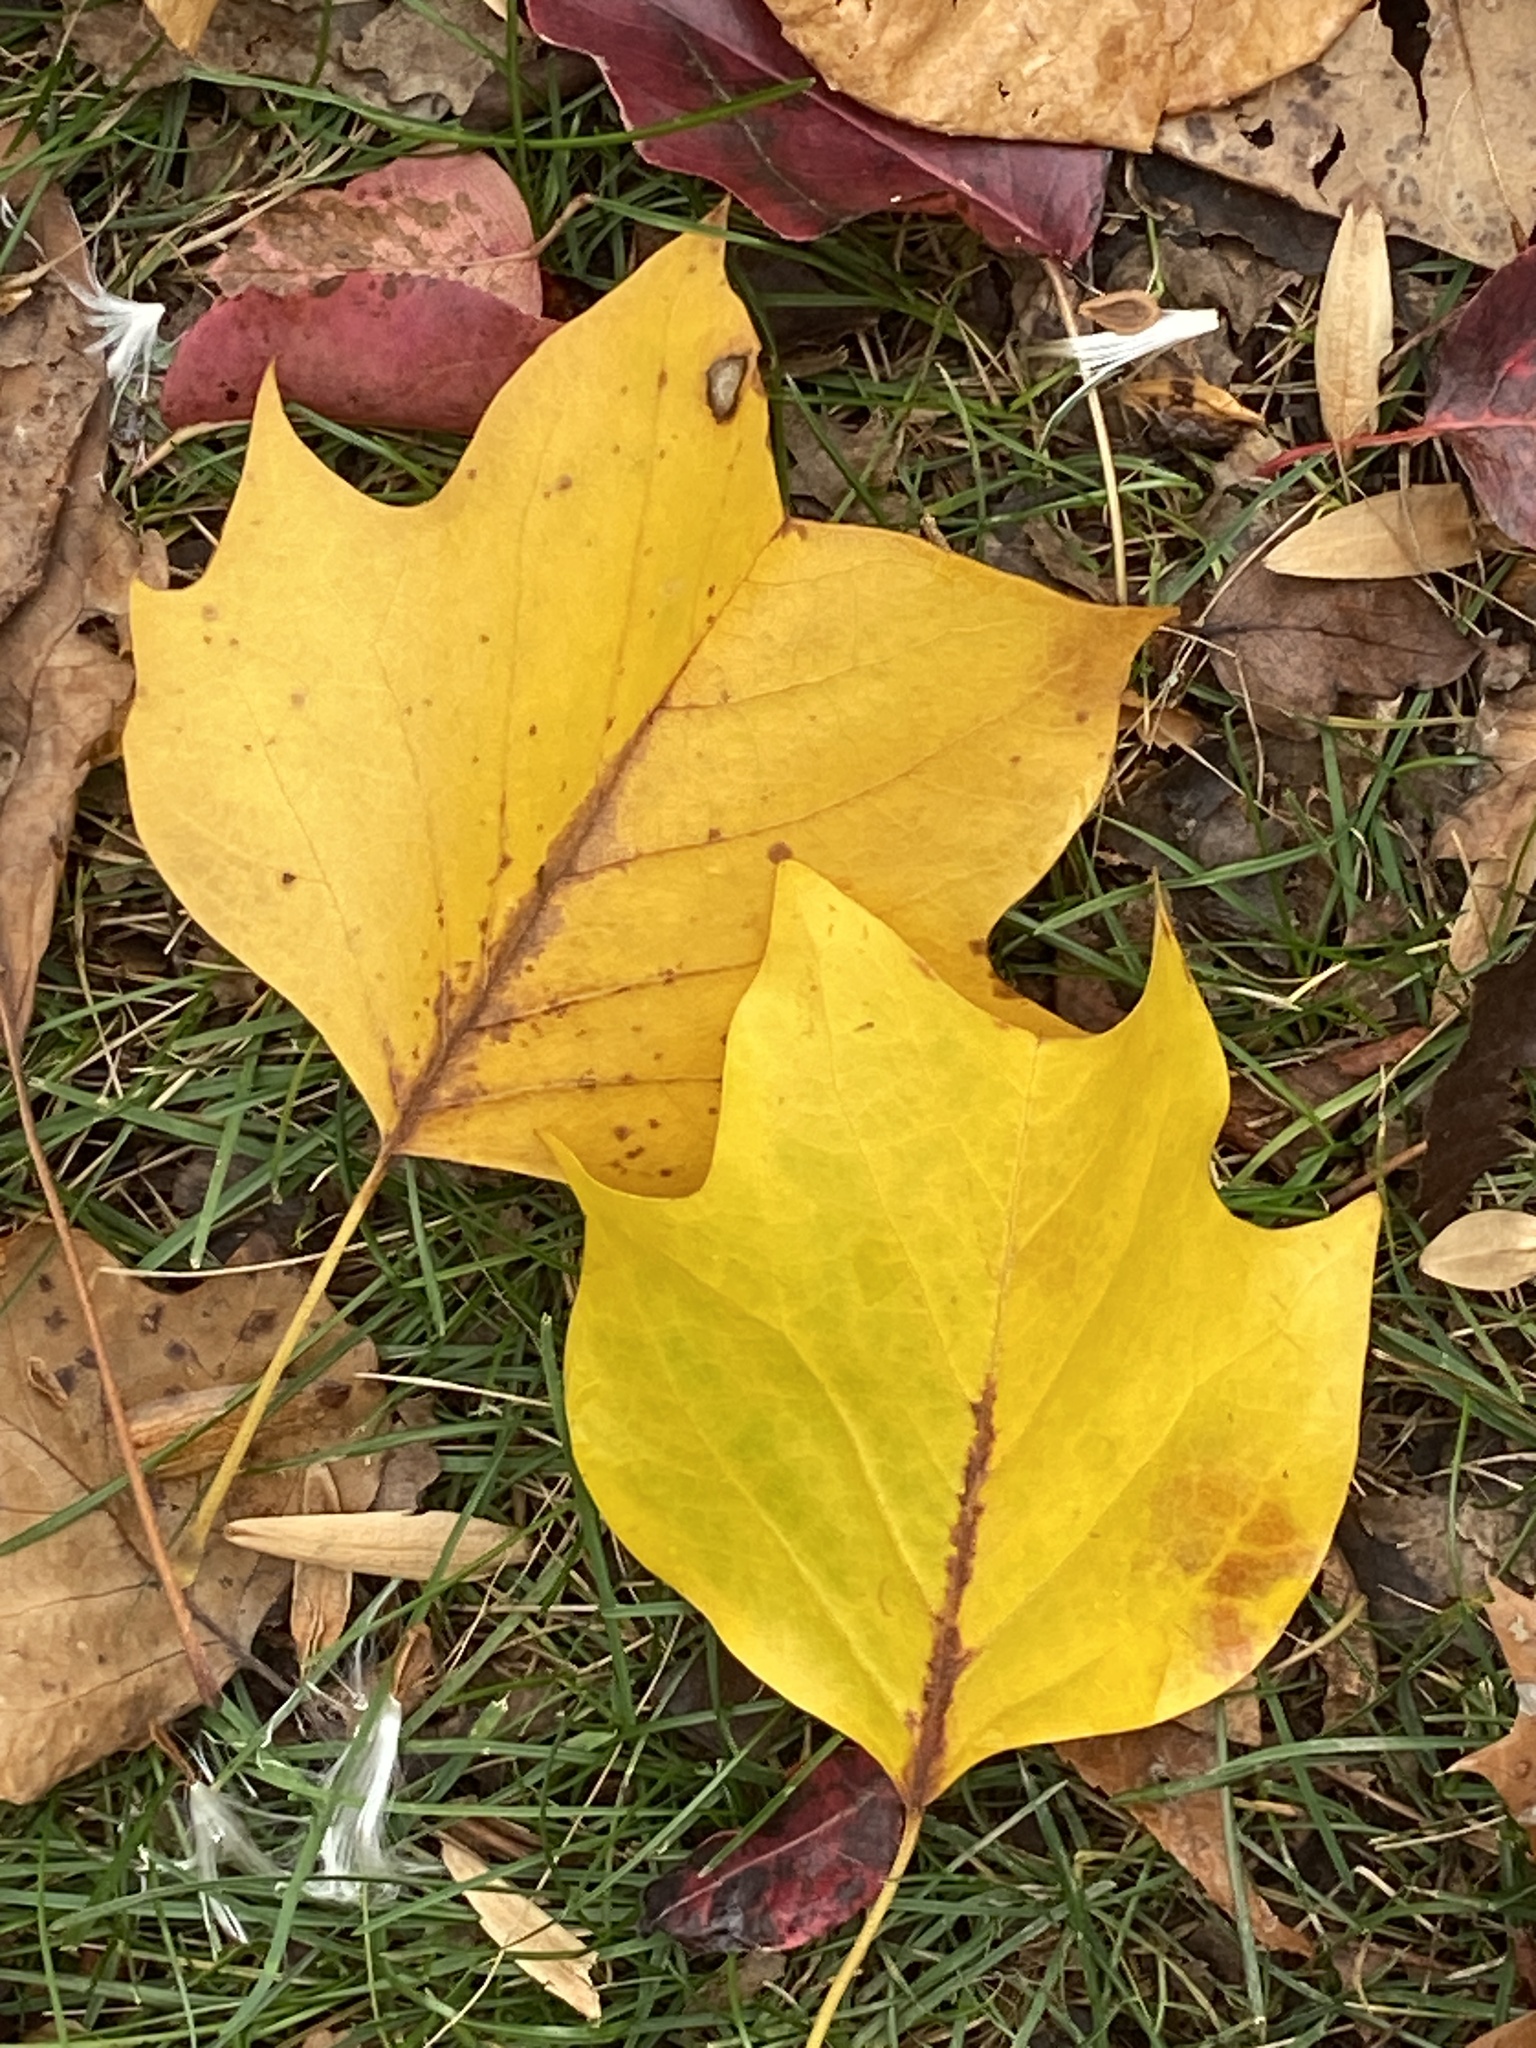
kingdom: Plantae
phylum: Tracheophyta
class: Magnoliopsida
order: Magnoliales
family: Magnoliaceae
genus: Liriodendron
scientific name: Liriodendron tulipifera
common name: Tulip tree
